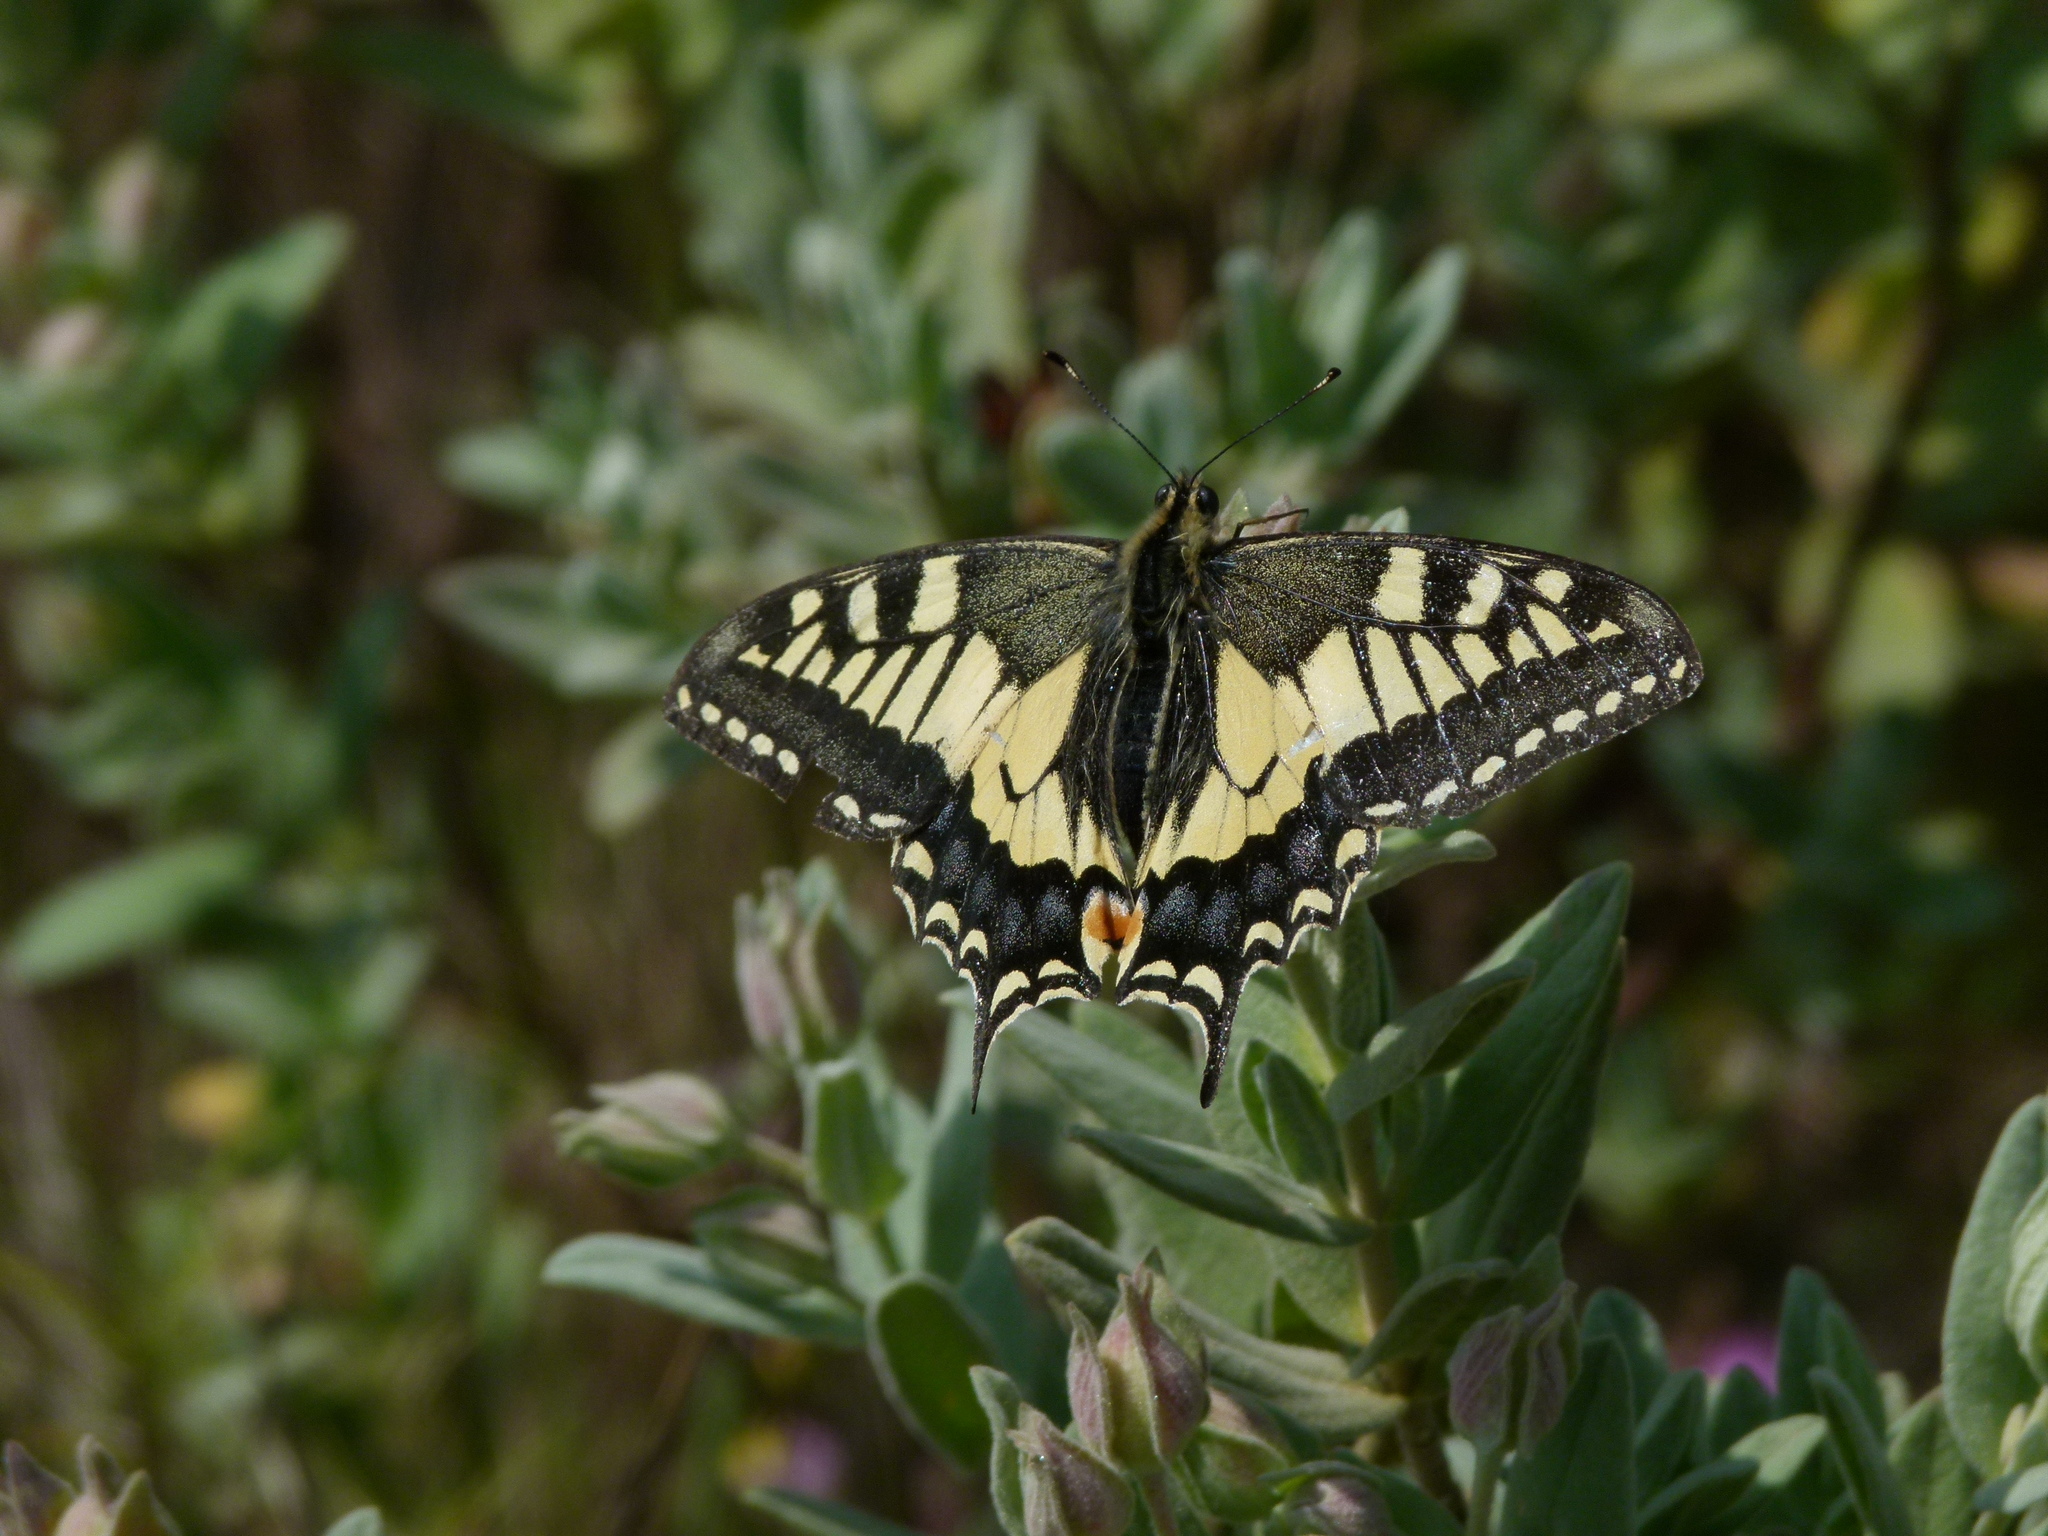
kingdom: Animalia
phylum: Arthropoda
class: Insecta
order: Lepidoptera
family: Papilionidae
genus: Papilio
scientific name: Papilio machaon
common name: Swallowtail
